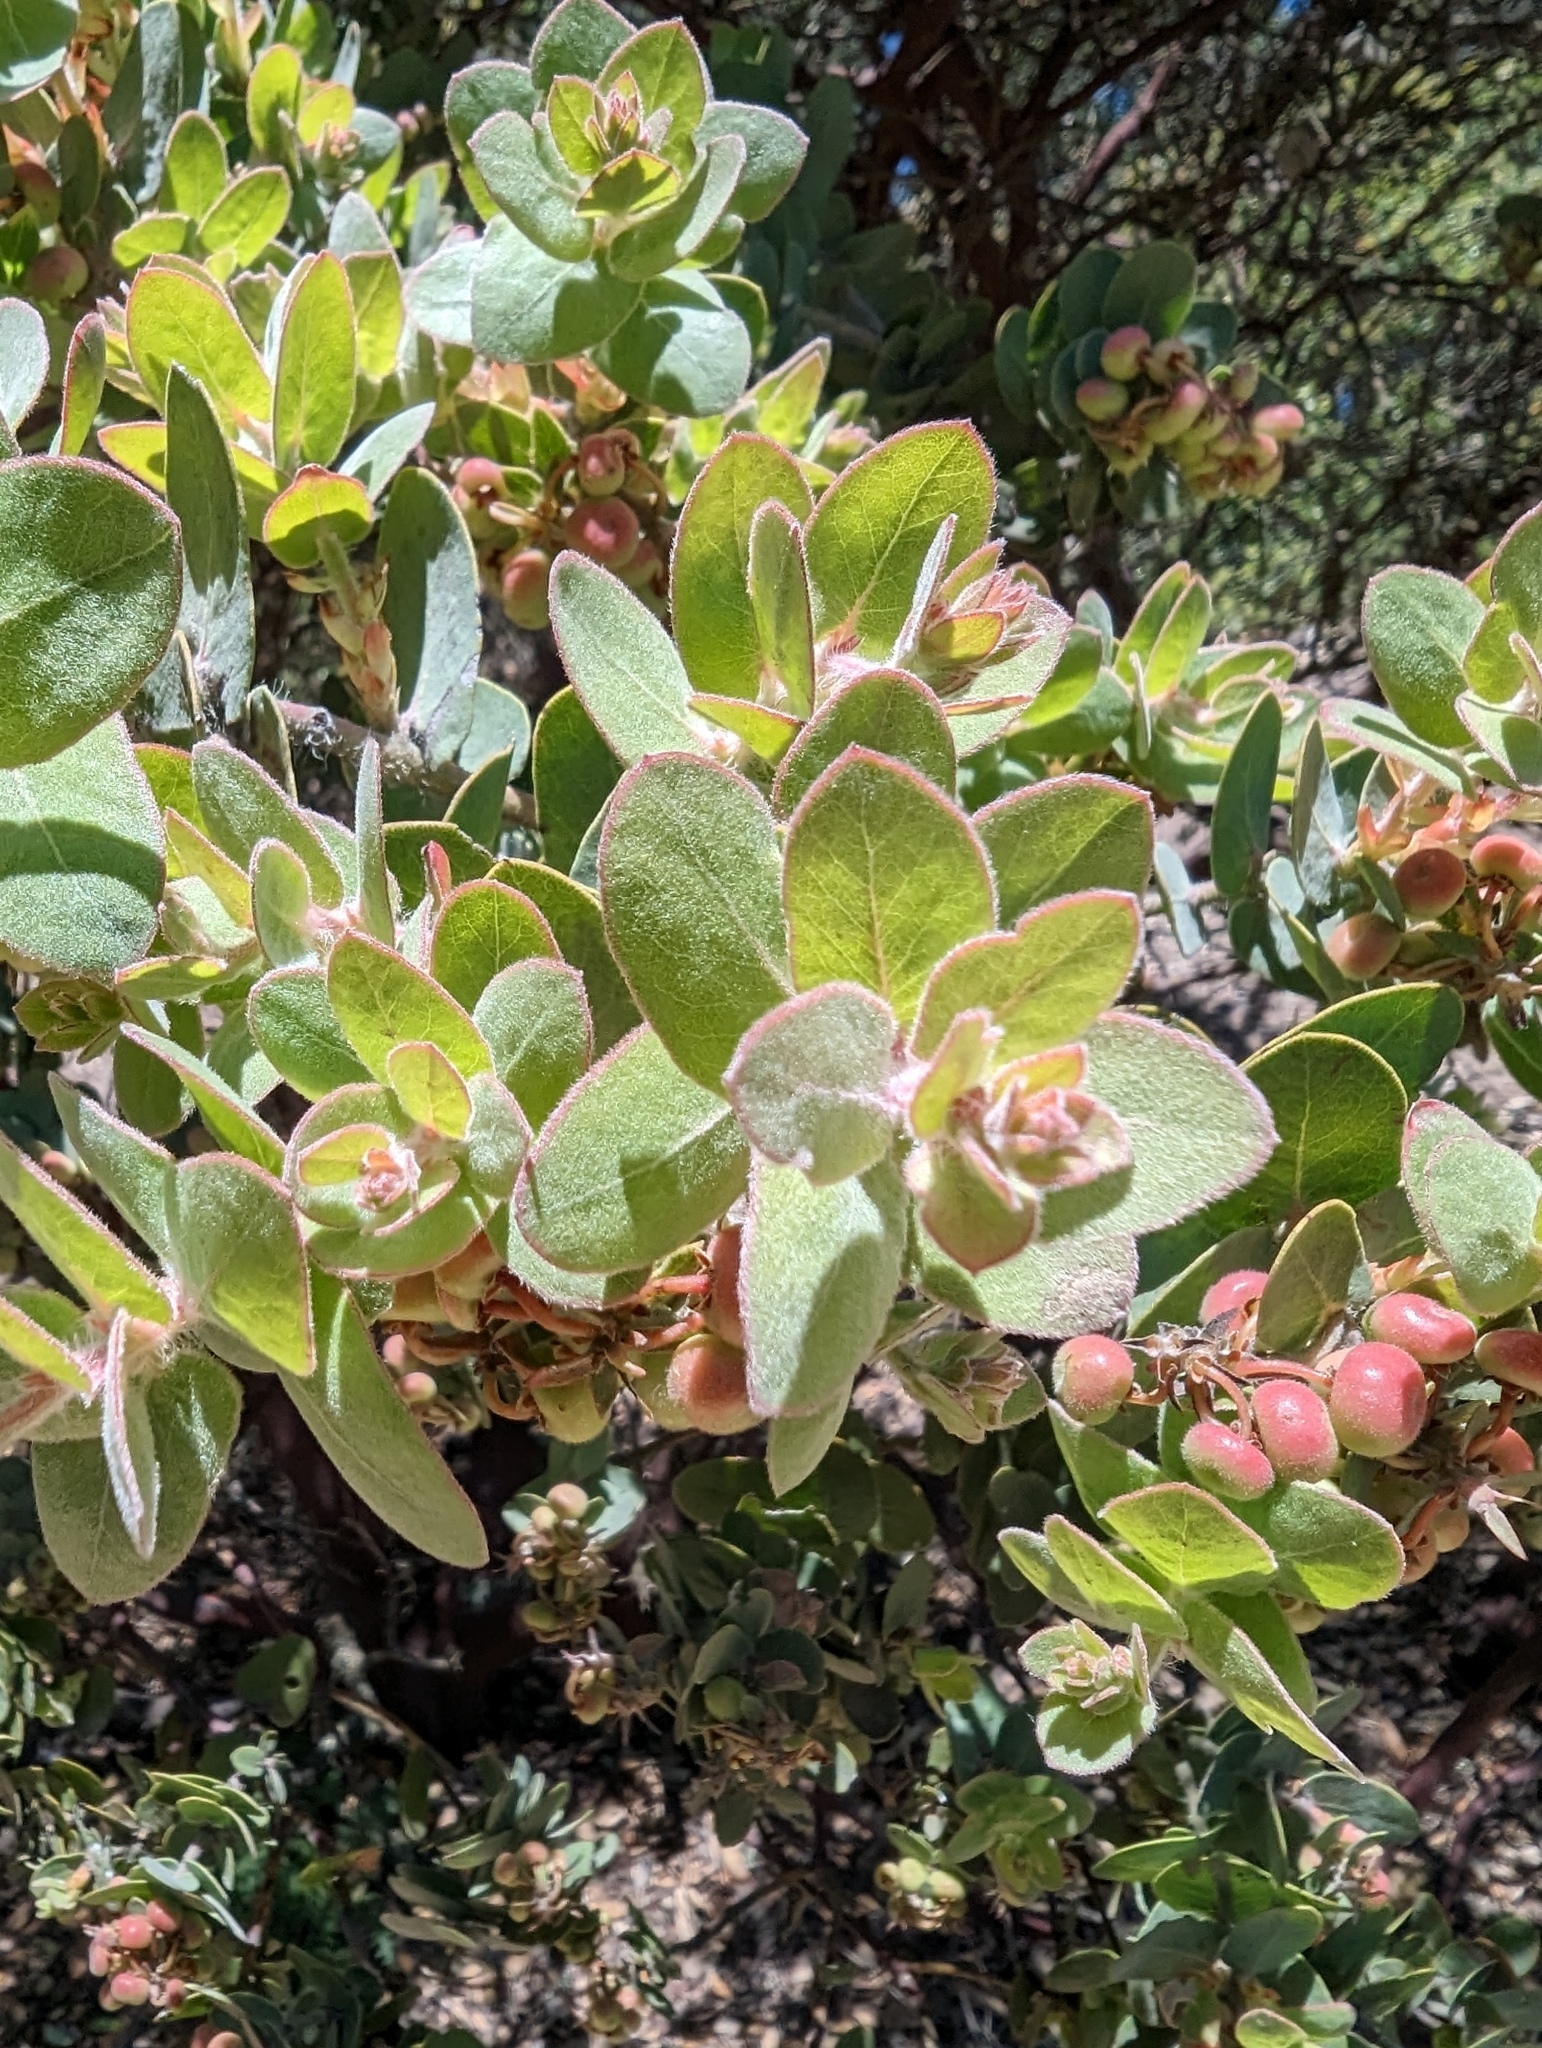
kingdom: Plantae
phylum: Tracheophyta
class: Magnoliopsida
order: Ericales
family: Ericaceae
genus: Arctostaphylos
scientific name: Arctostaphylos auriculata
